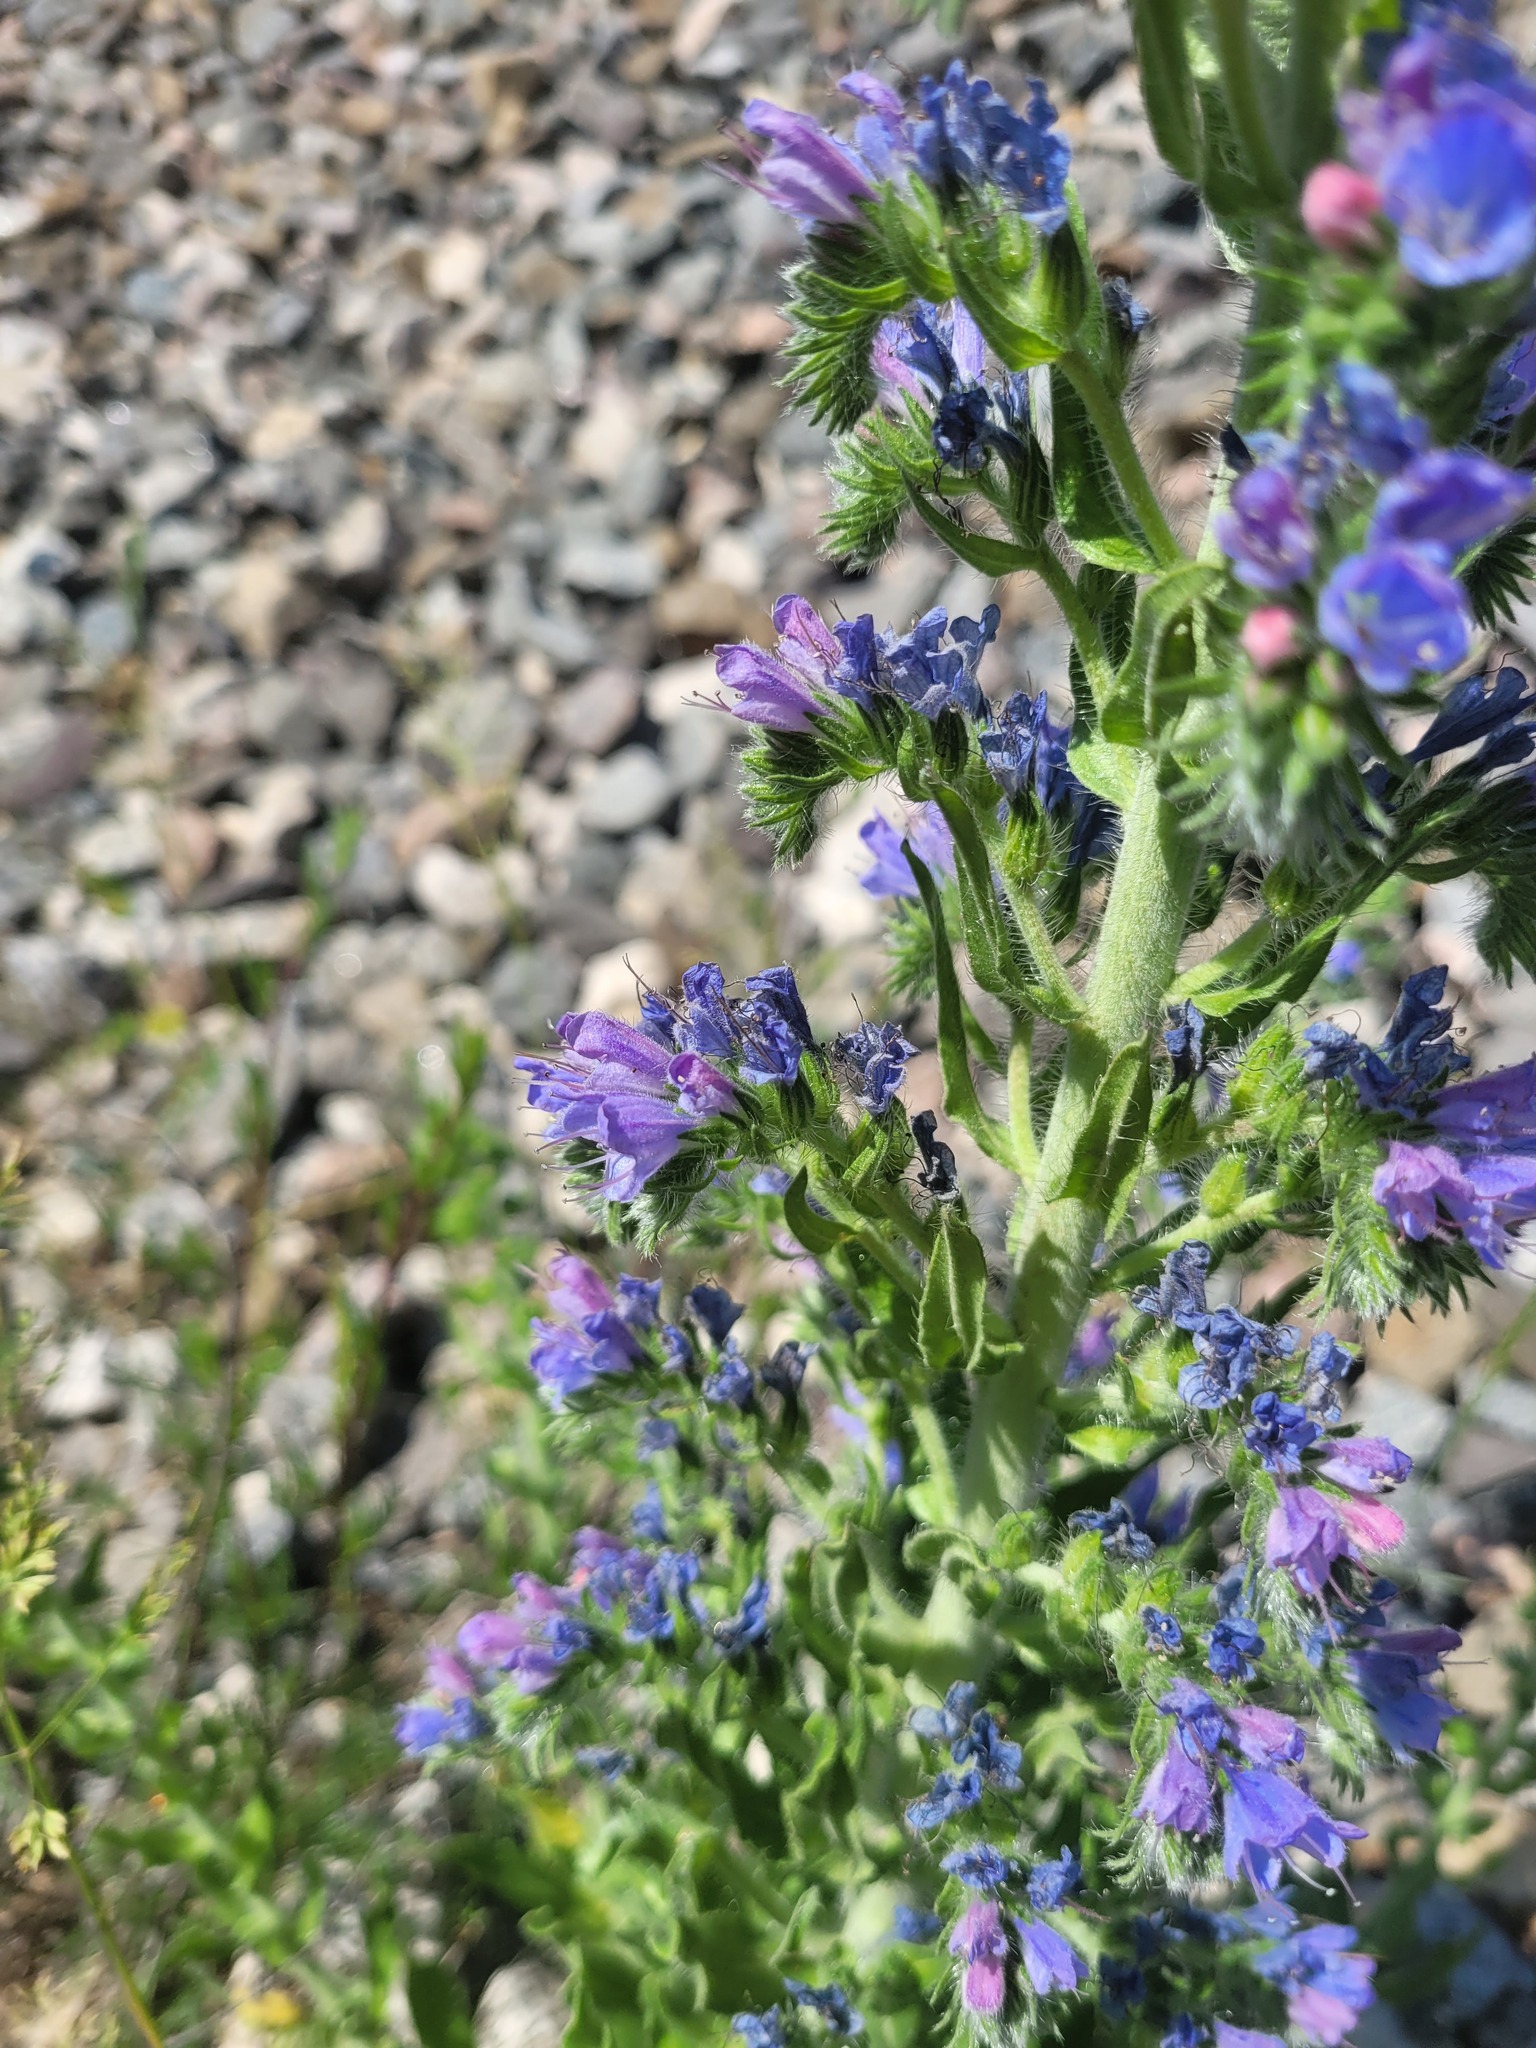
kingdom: Plantae
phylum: Tracheophyta
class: Magnoliopsida
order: Boraginales
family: Boraginaceae
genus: Echium
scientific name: Echium vulgare
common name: Common viper's bugloss
